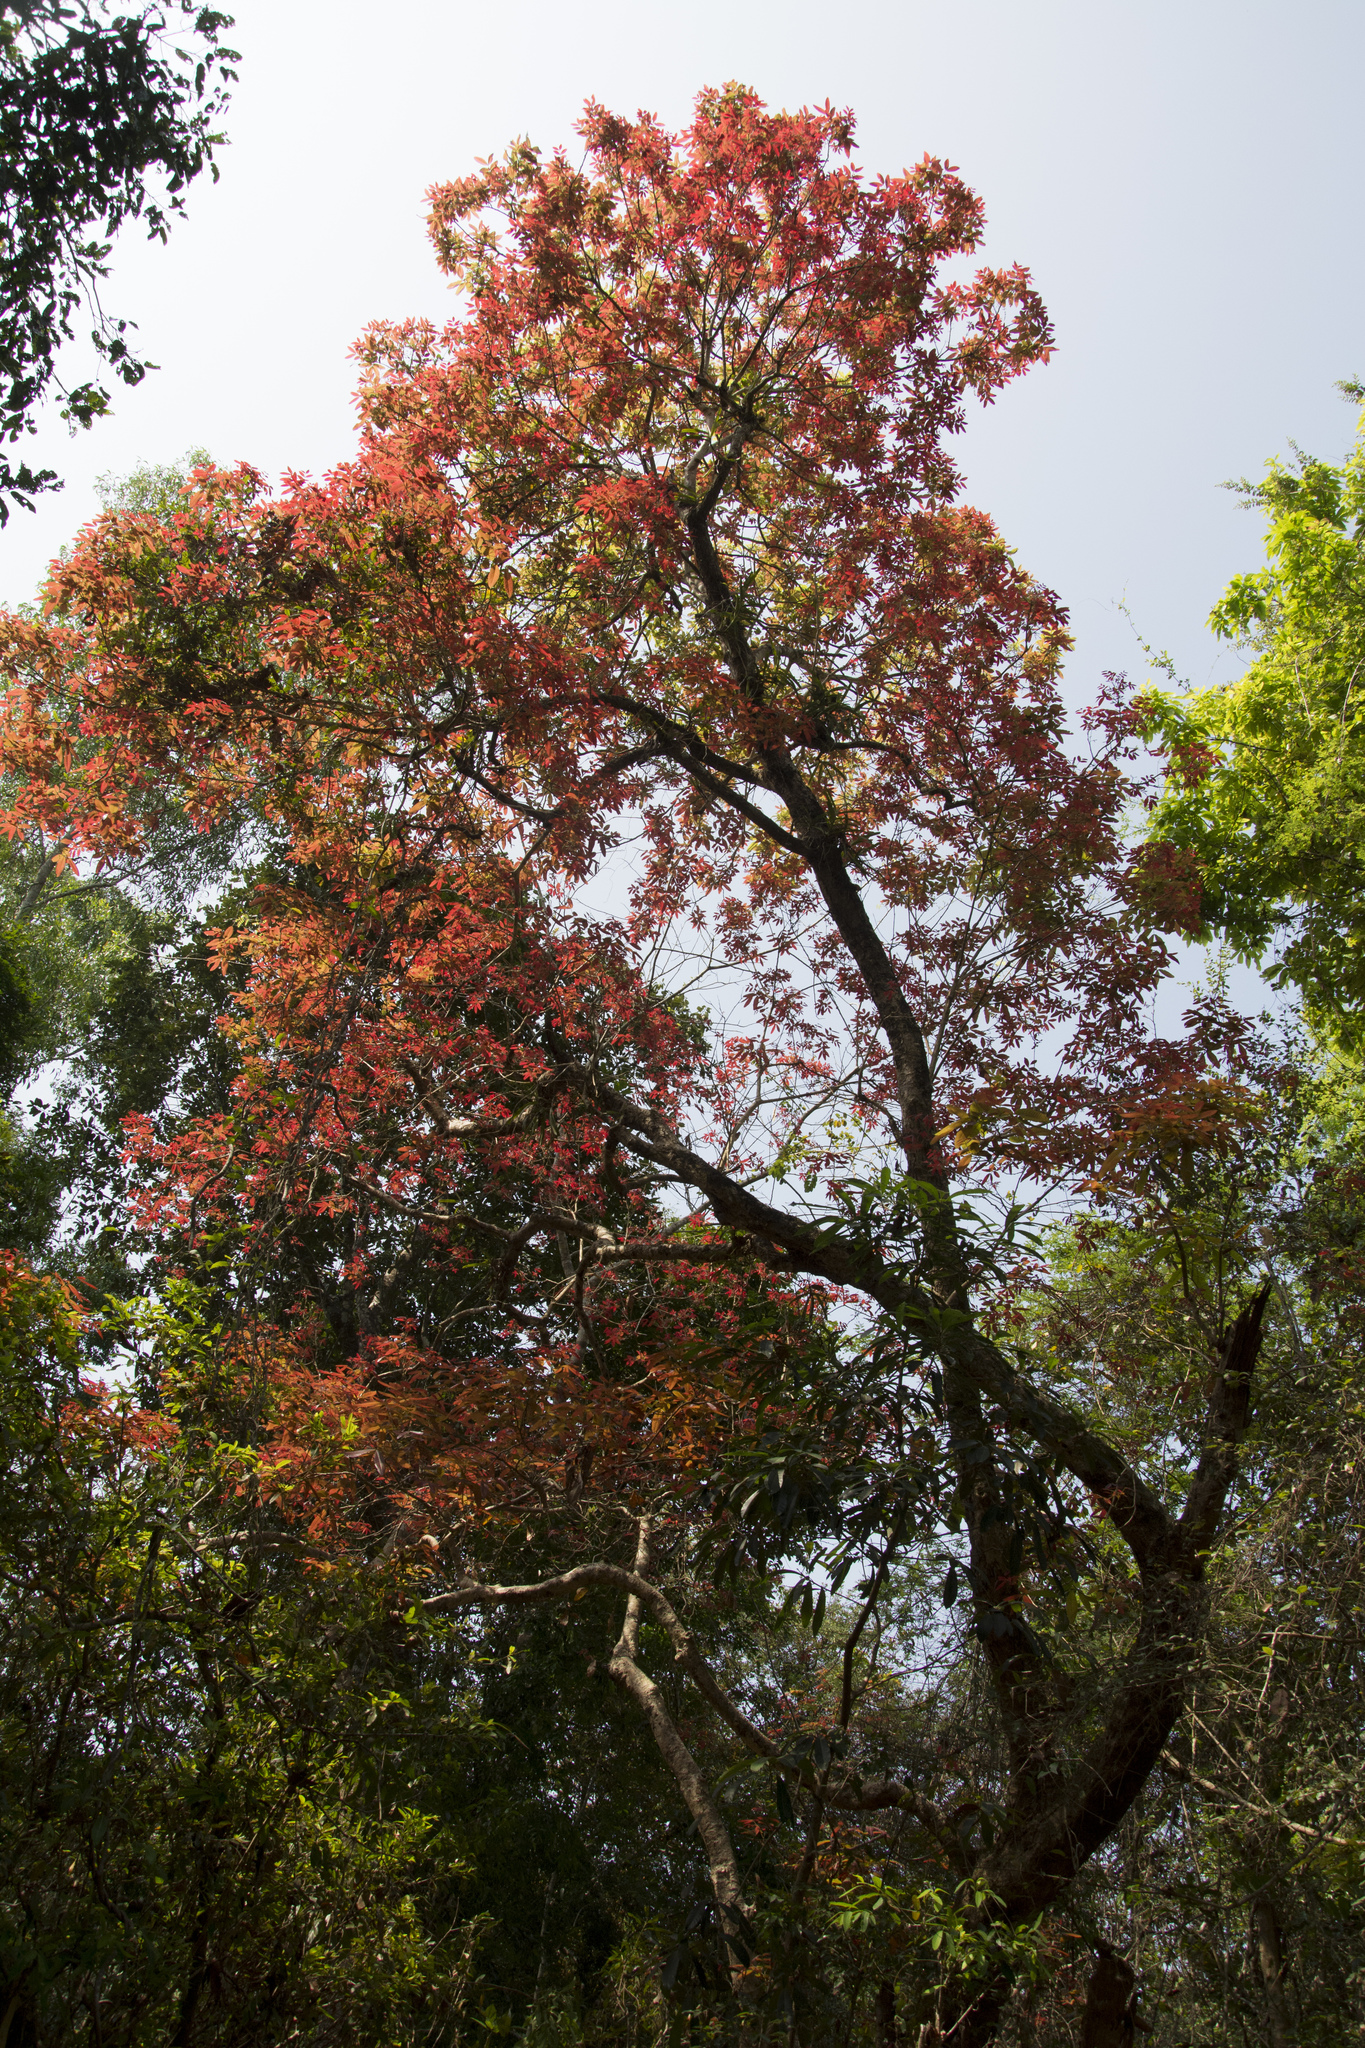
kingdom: Plantae
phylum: Tracheophyta
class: Magnoliopsida
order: Sapindales
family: Sapindaceae
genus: Schleichera
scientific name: Schleichera oleosa
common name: Malay lactree
